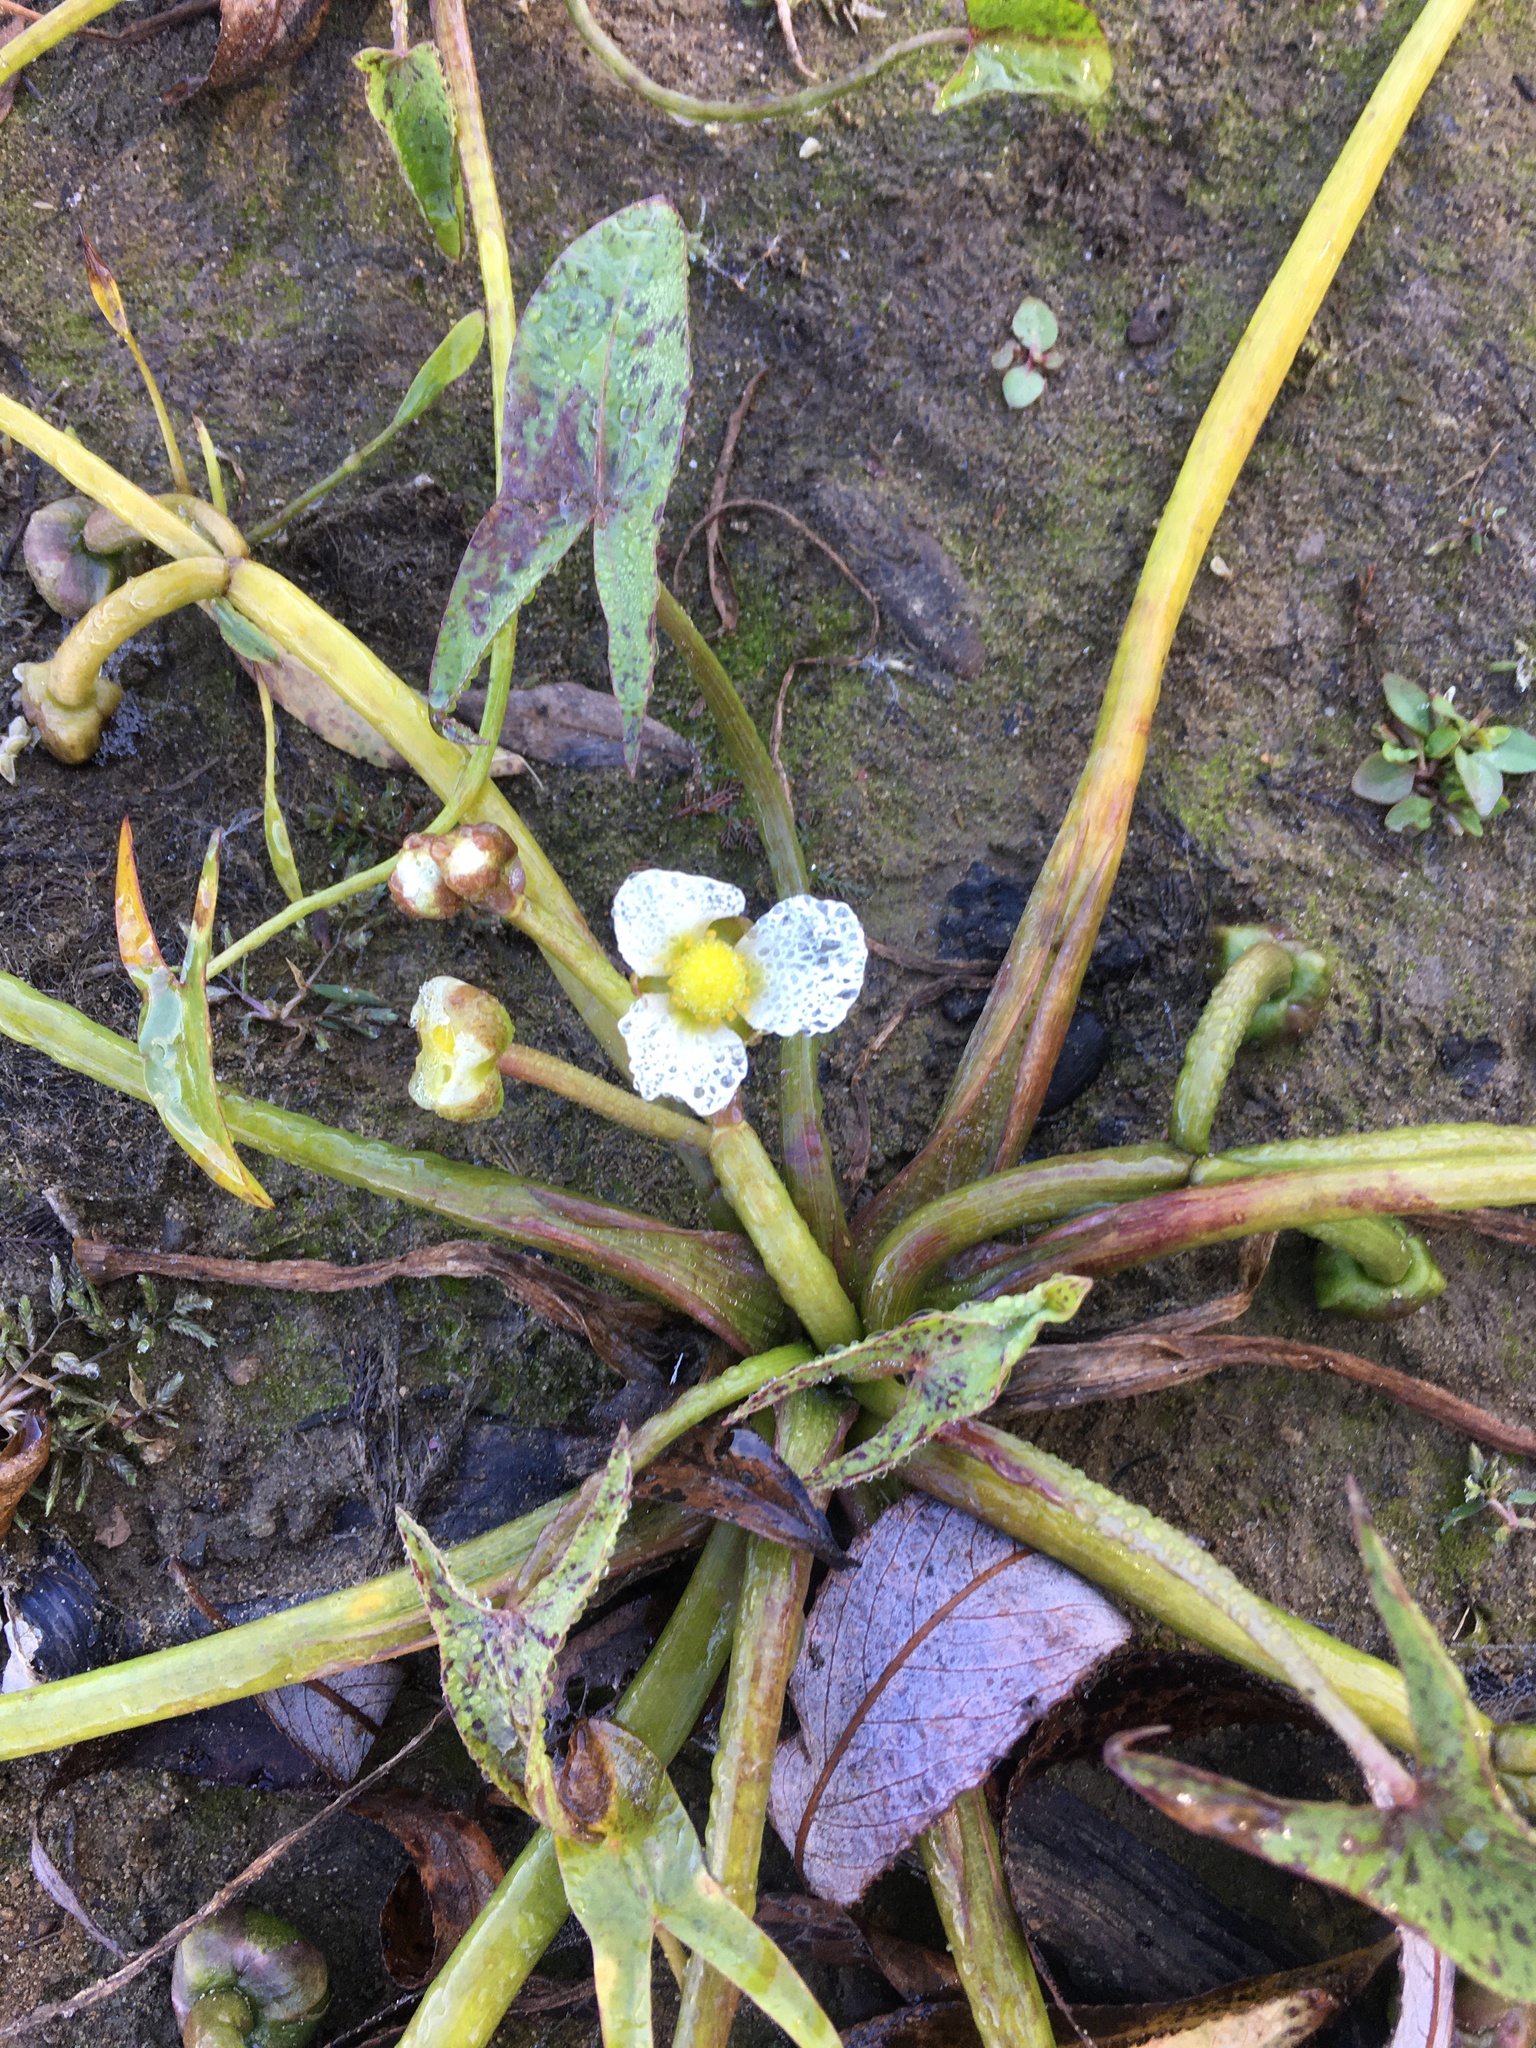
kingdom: Plantae
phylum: Tracheophyta
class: Liliopsida
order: Alismatales
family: Alismataceae
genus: Sagittaria
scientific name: Sagittaria calycina
